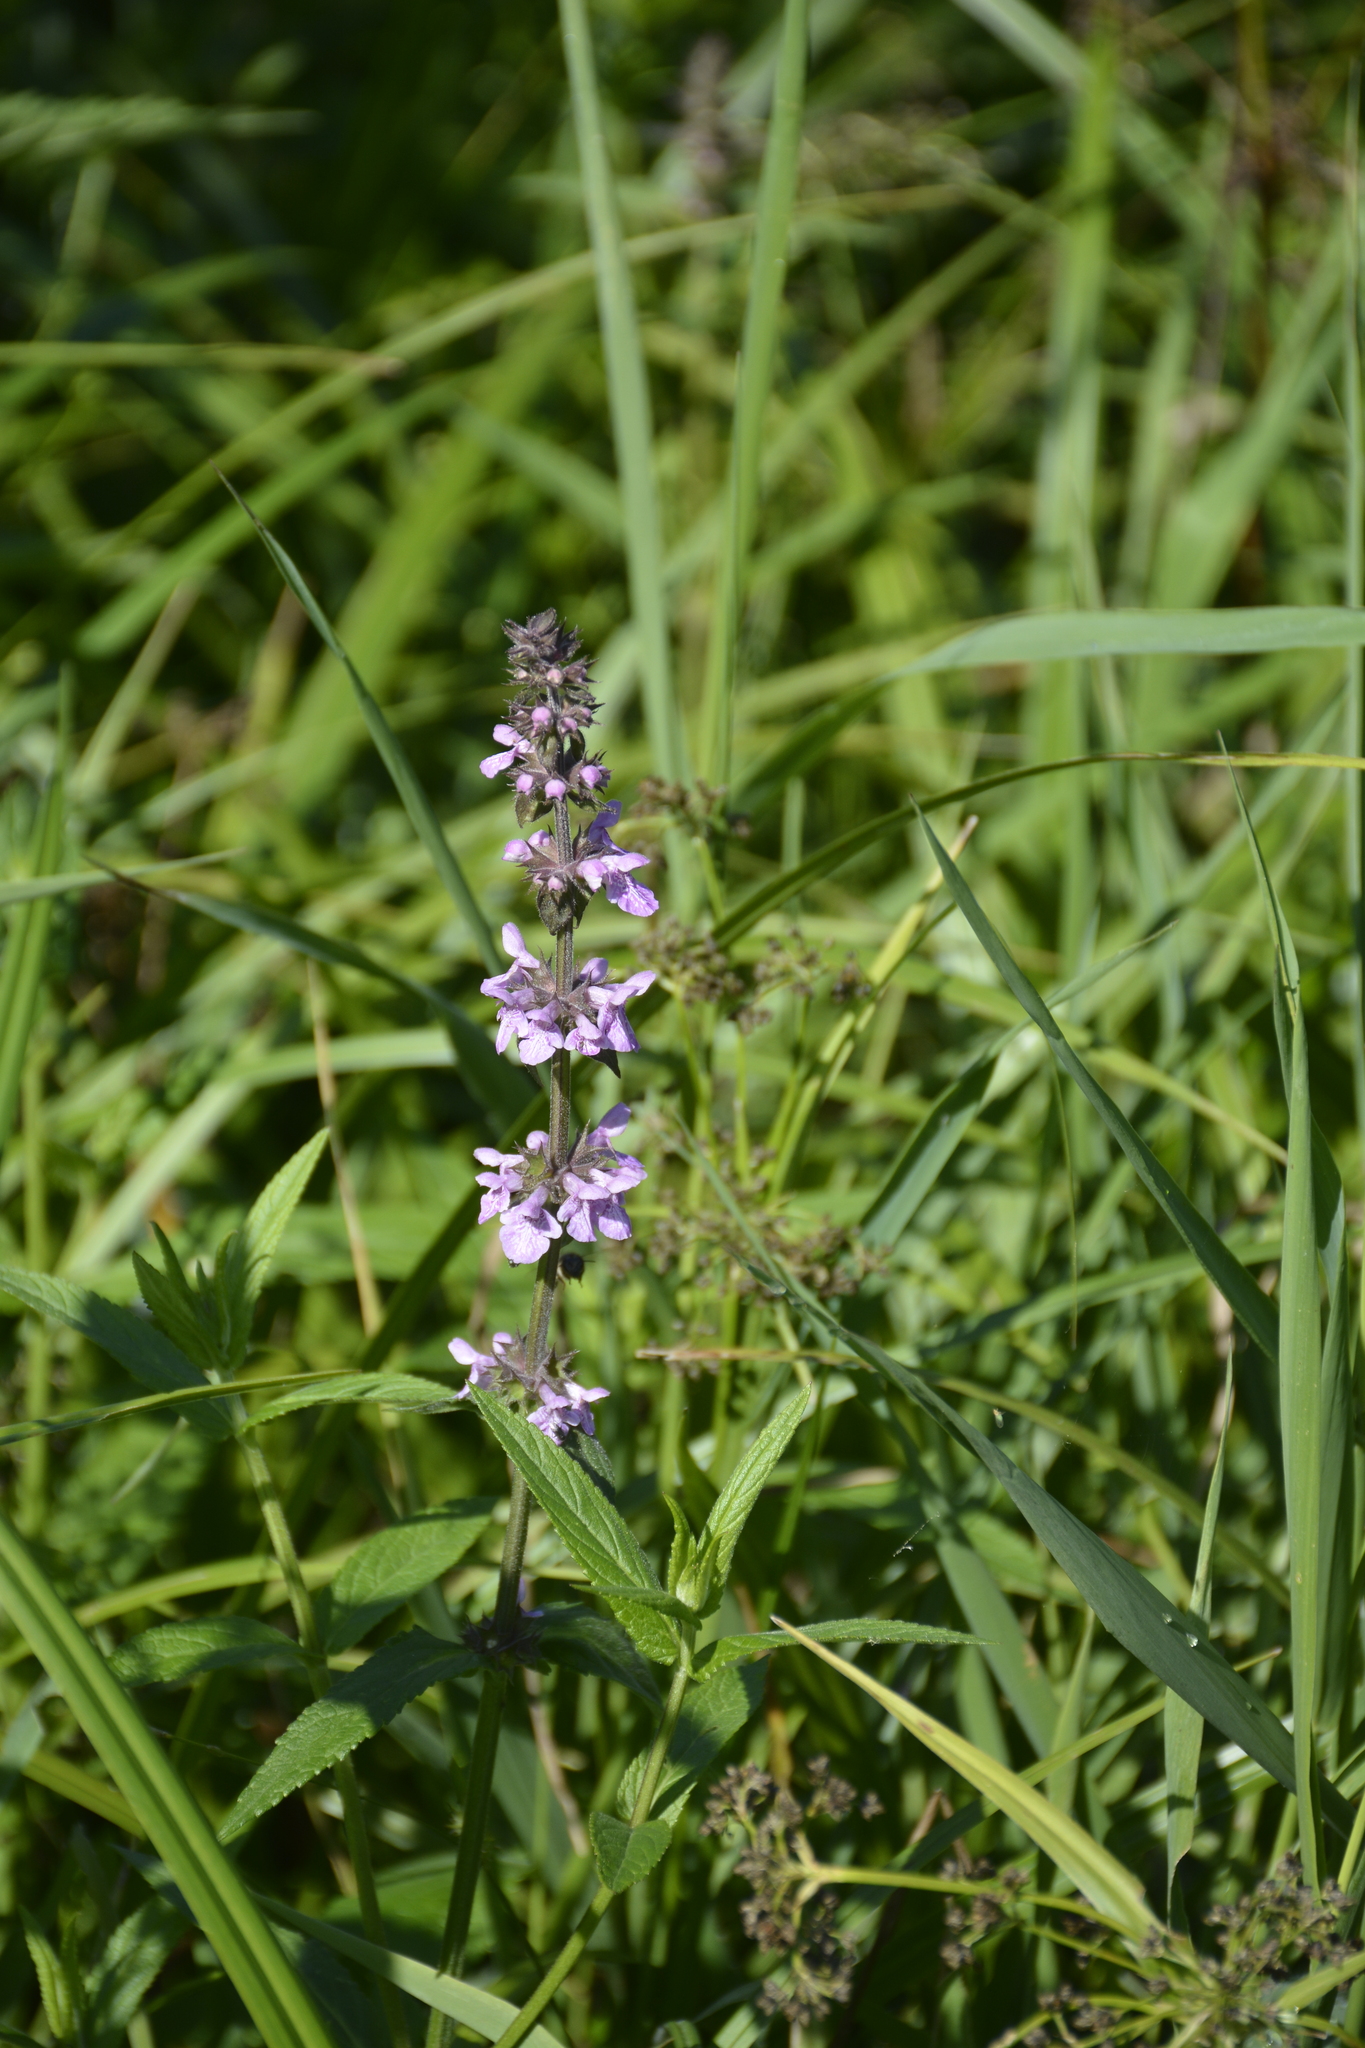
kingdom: Plantae
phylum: Tracheophyta
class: Magnoliopsida
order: Lamiales
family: Lamiaceae
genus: Stachys
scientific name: Stachys palustris
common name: Marsh woundwort
